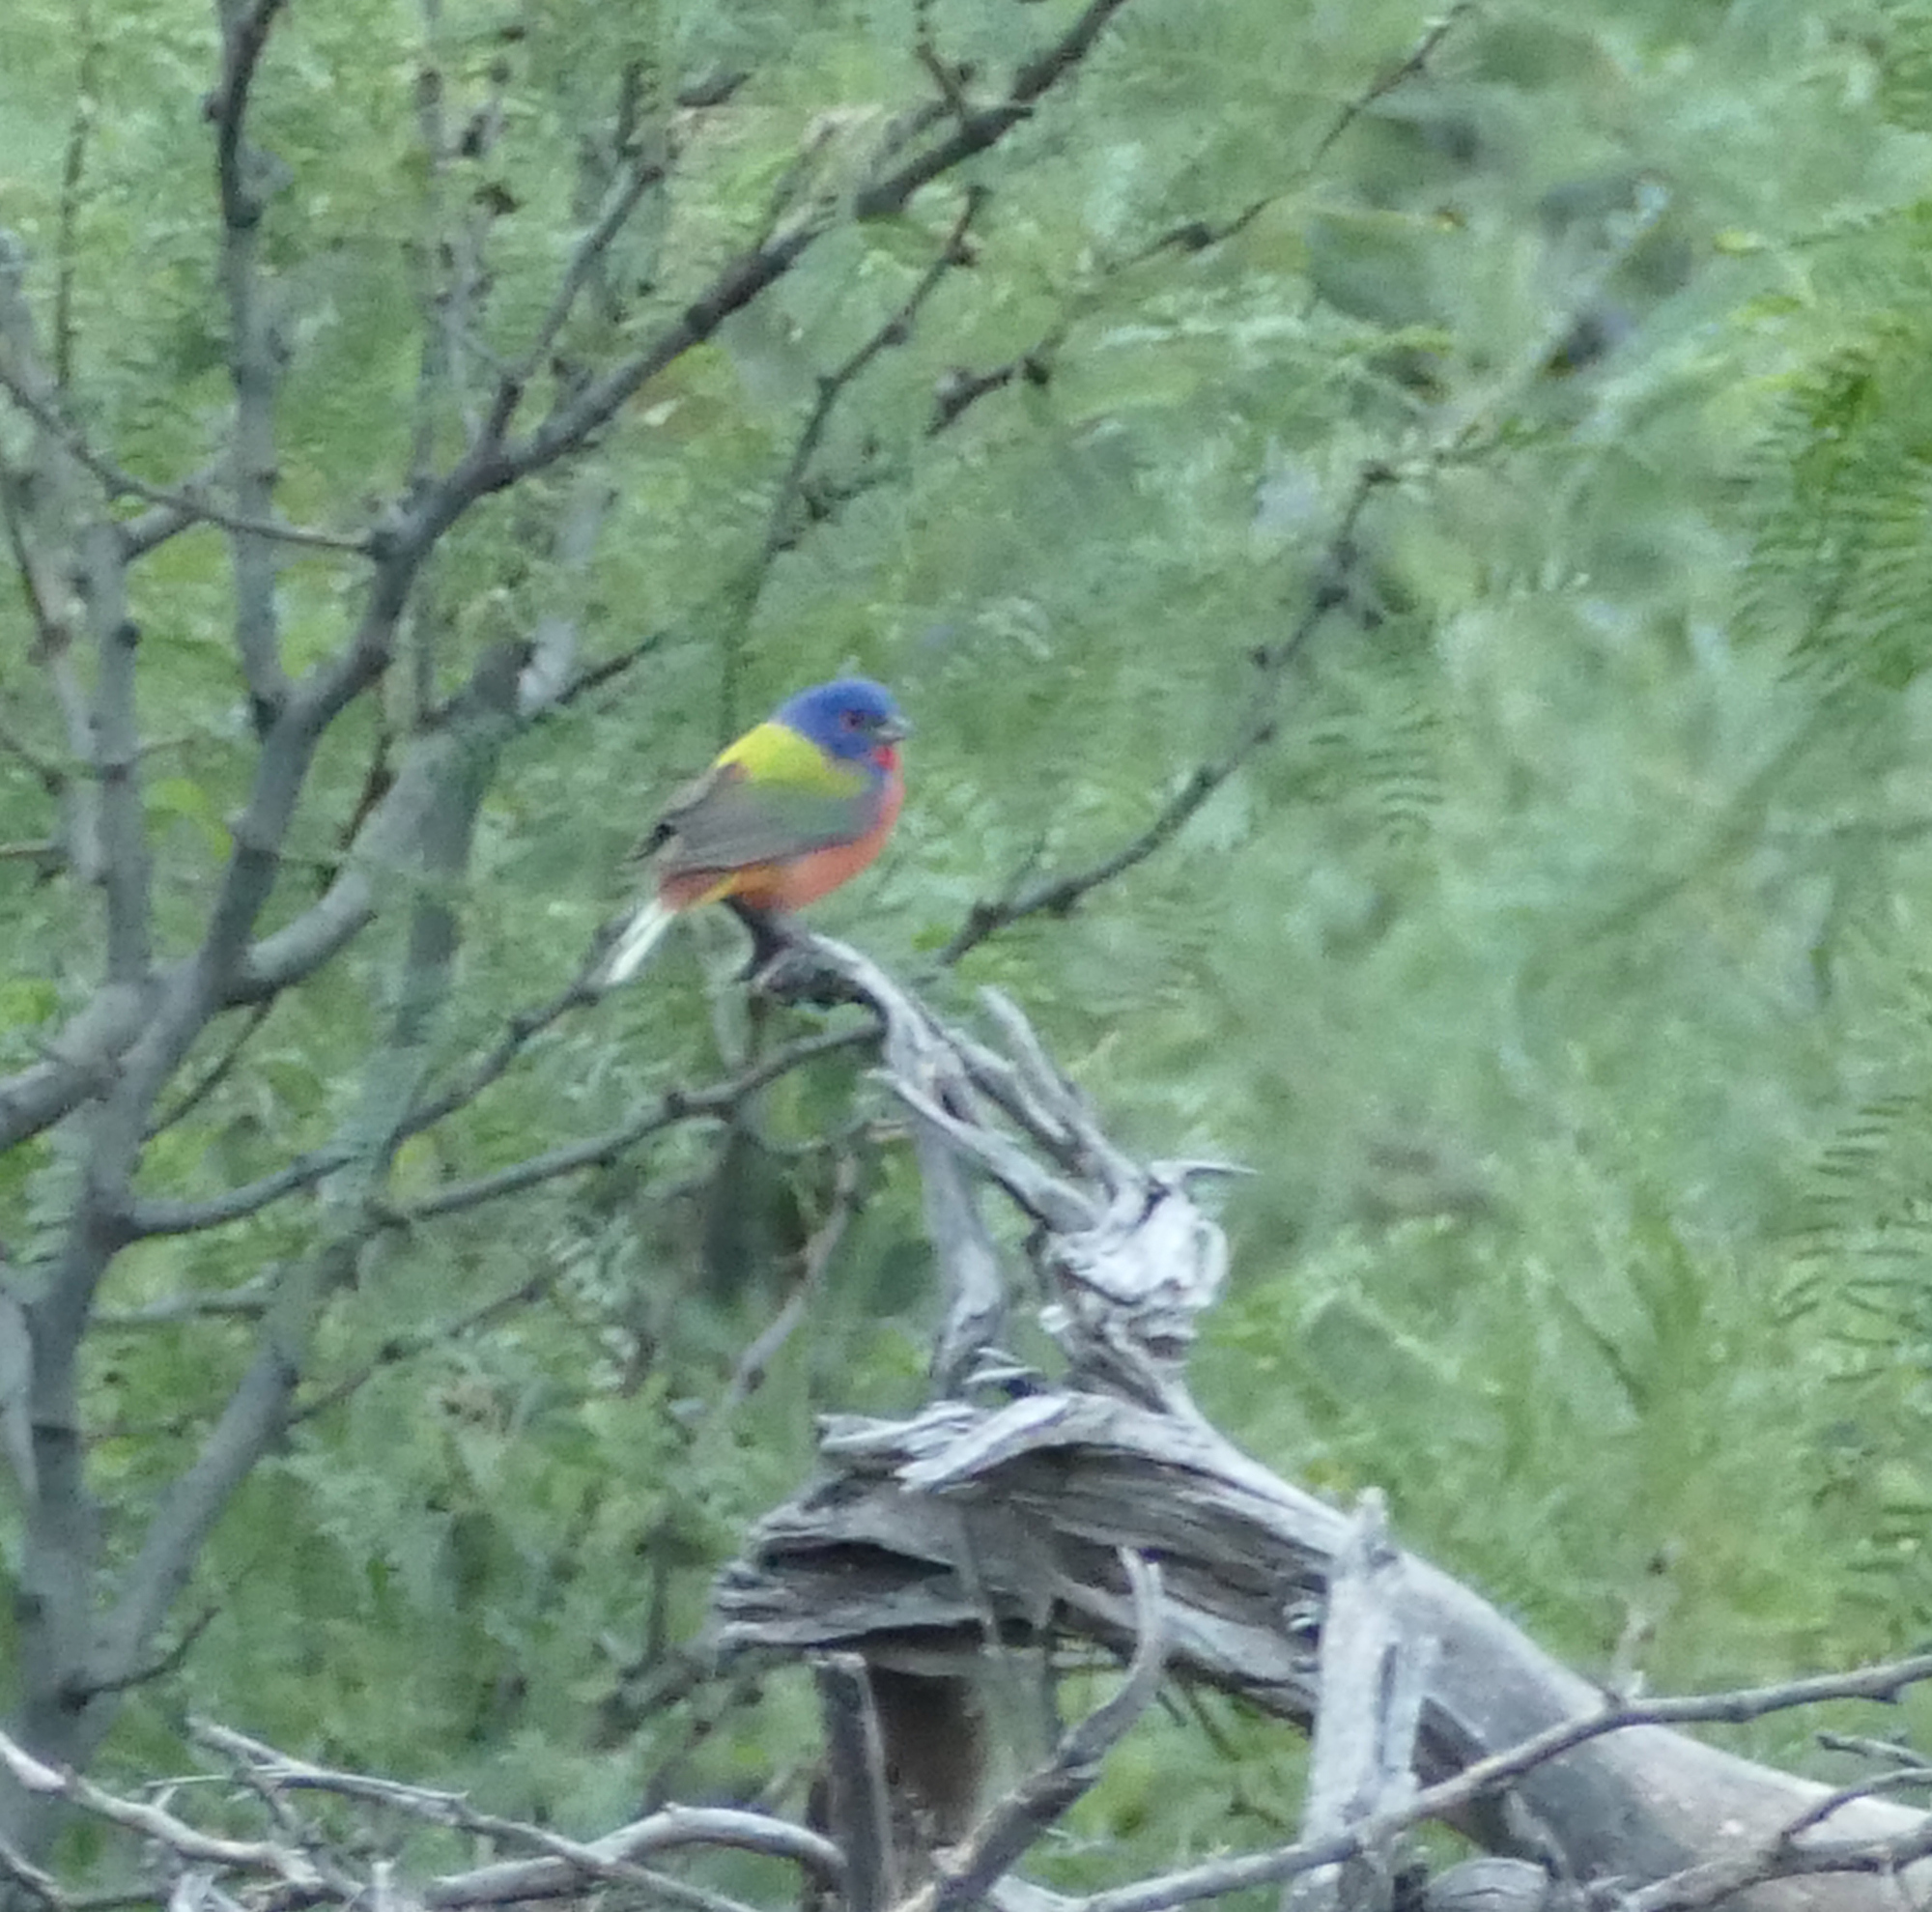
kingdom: Animalia
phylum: Chordata
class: Aves
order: Passeriformes
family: Cardinalidae
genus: Passerina
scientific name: Passerina ciris
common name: Painted bunting
